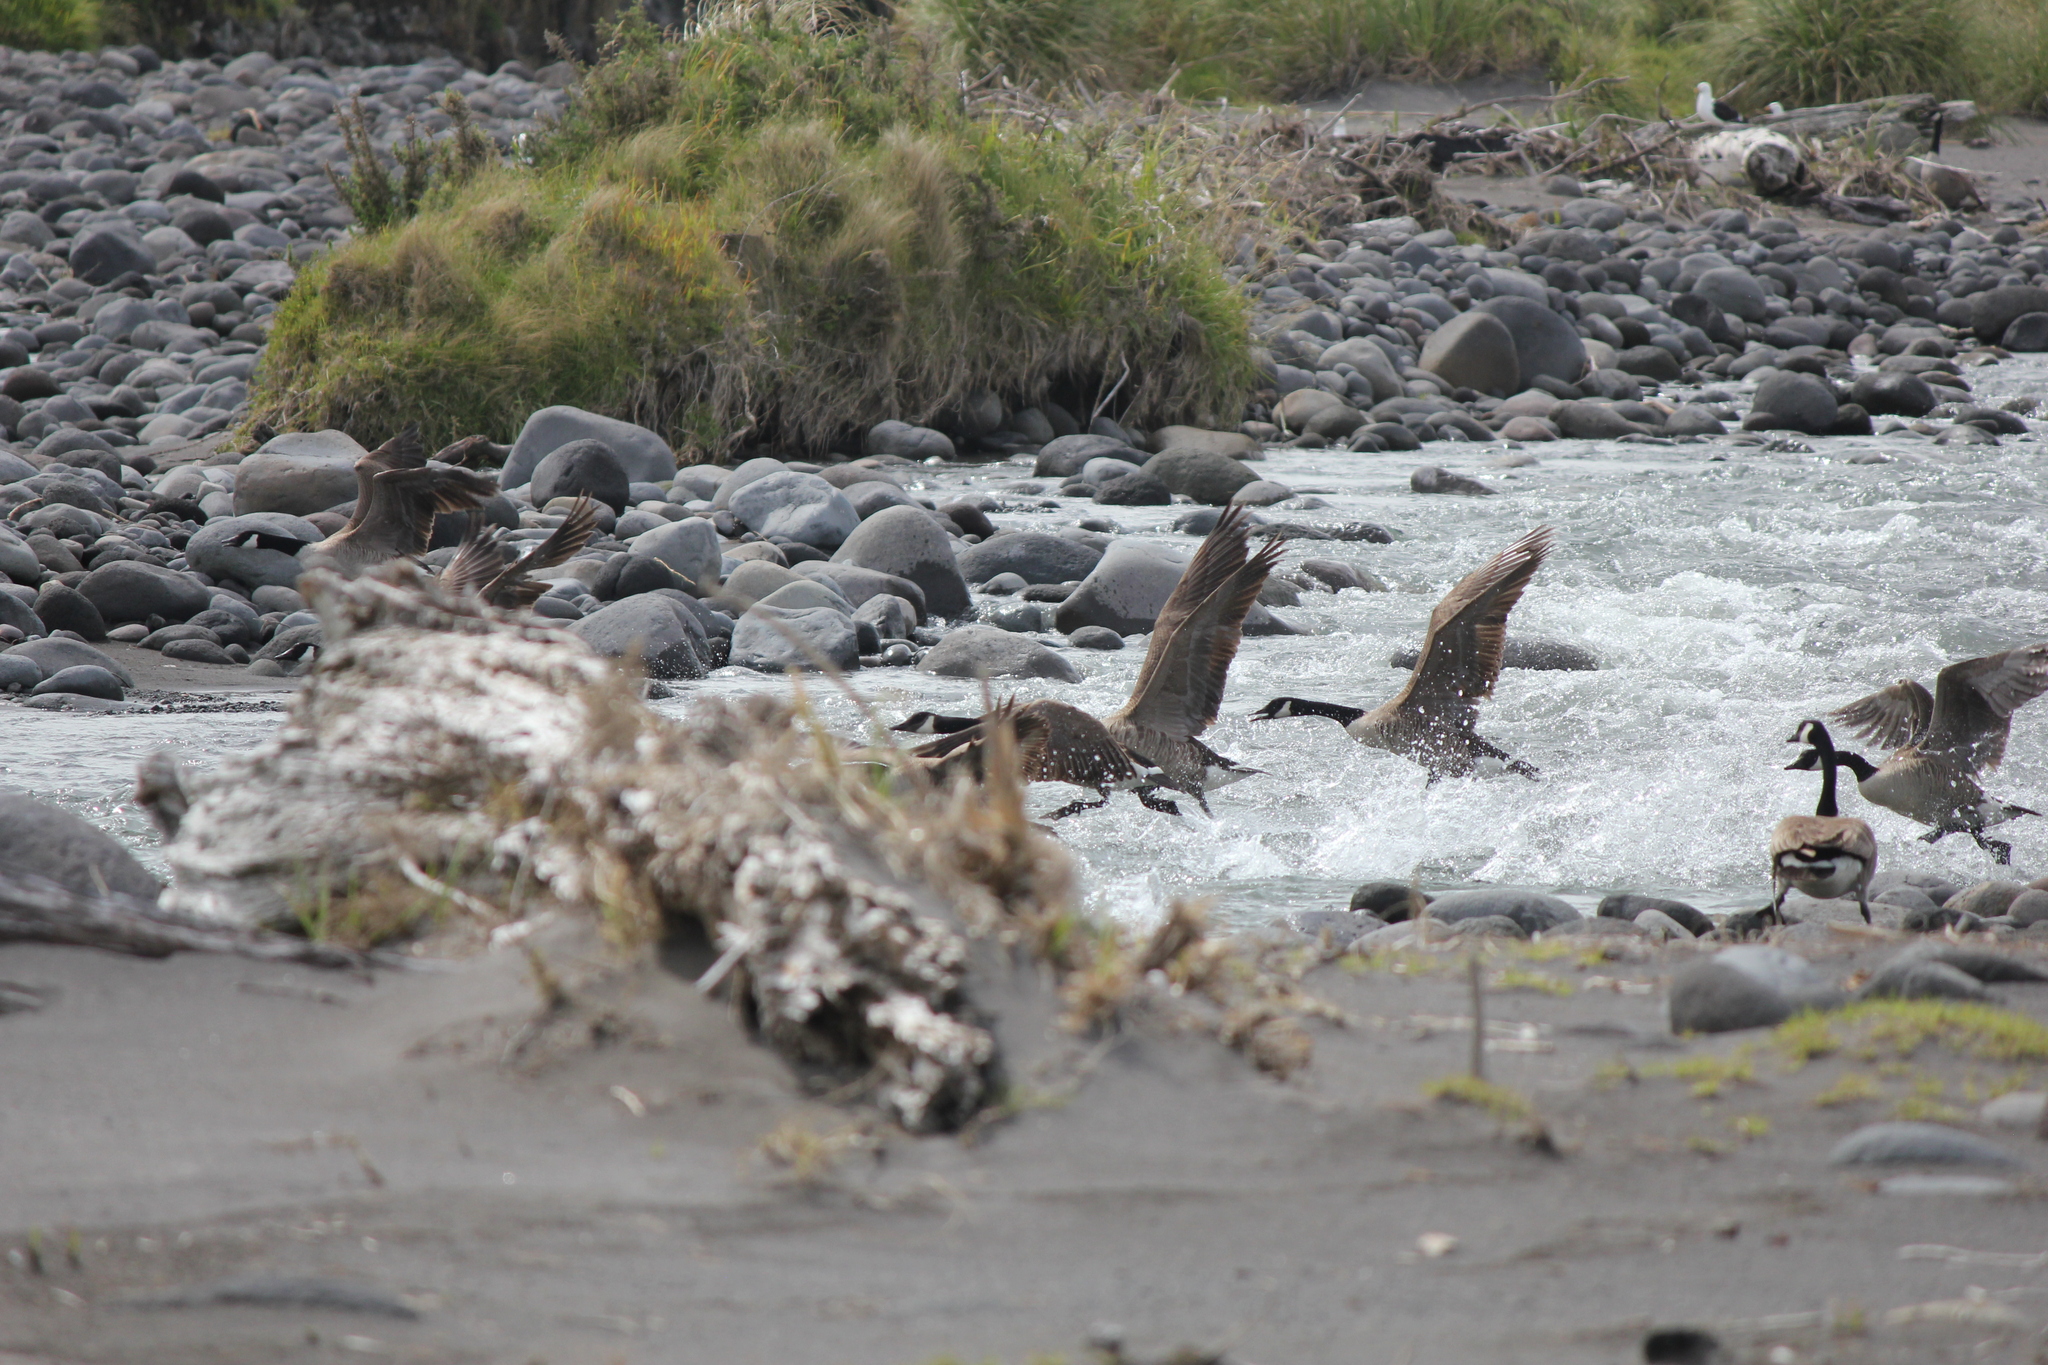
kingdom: Animalia
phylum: Chordata
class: Aves
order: Anseriformes
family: Anatidae
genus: Branta
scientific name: Branta canadensis
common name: Canada goose
